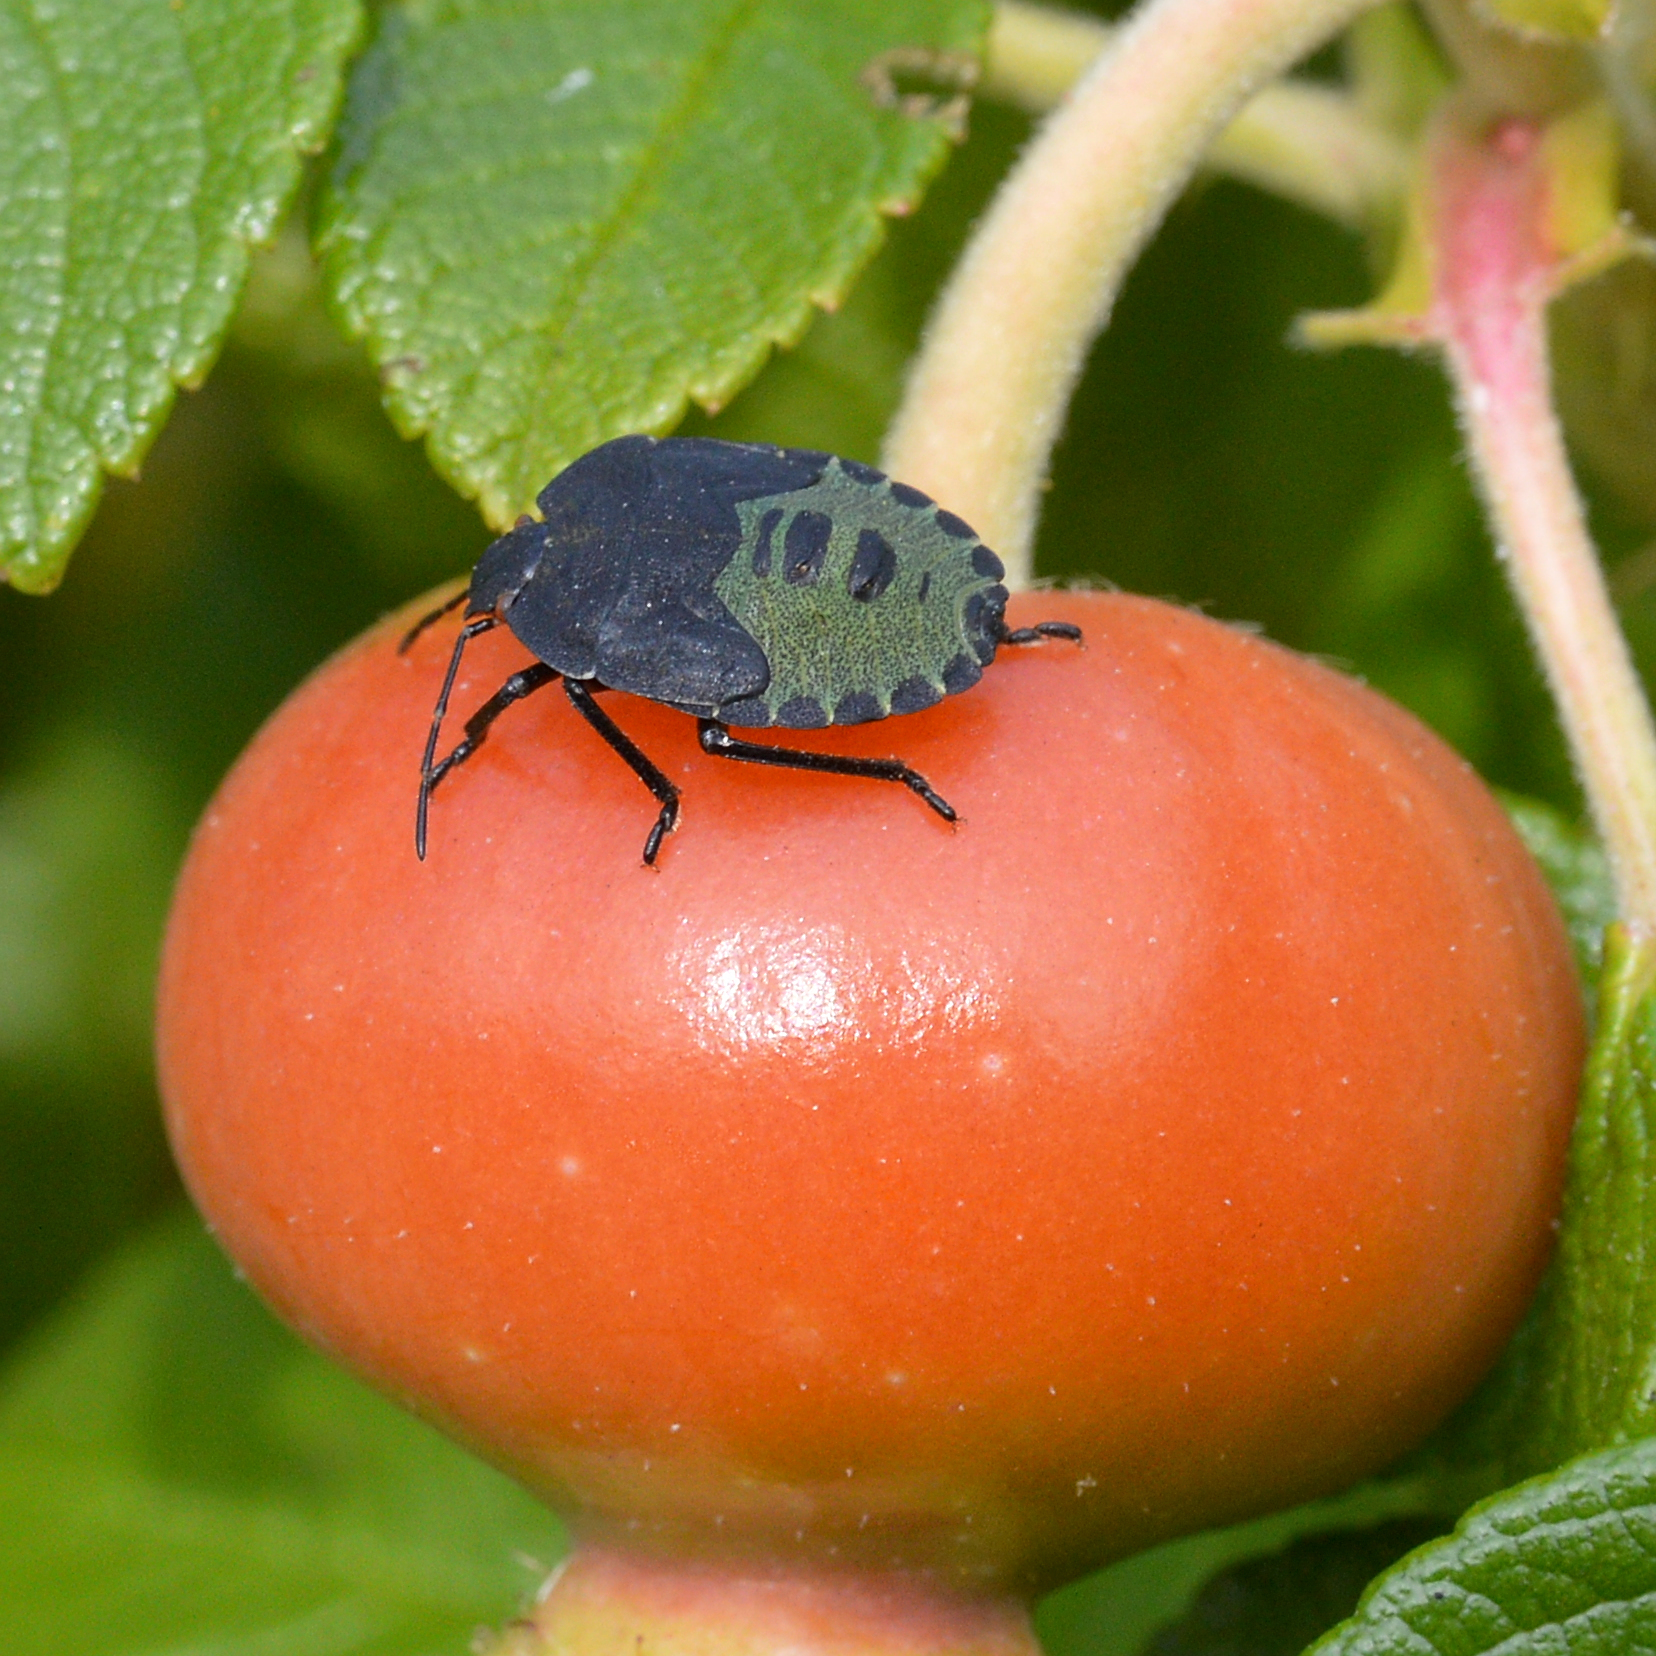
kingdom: Animalia
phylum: Arthropoda
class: Insecta
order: Hemiptera
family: Pentatomidae
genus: Palomena
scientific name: Palomena prasina
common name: Green shieldbug
